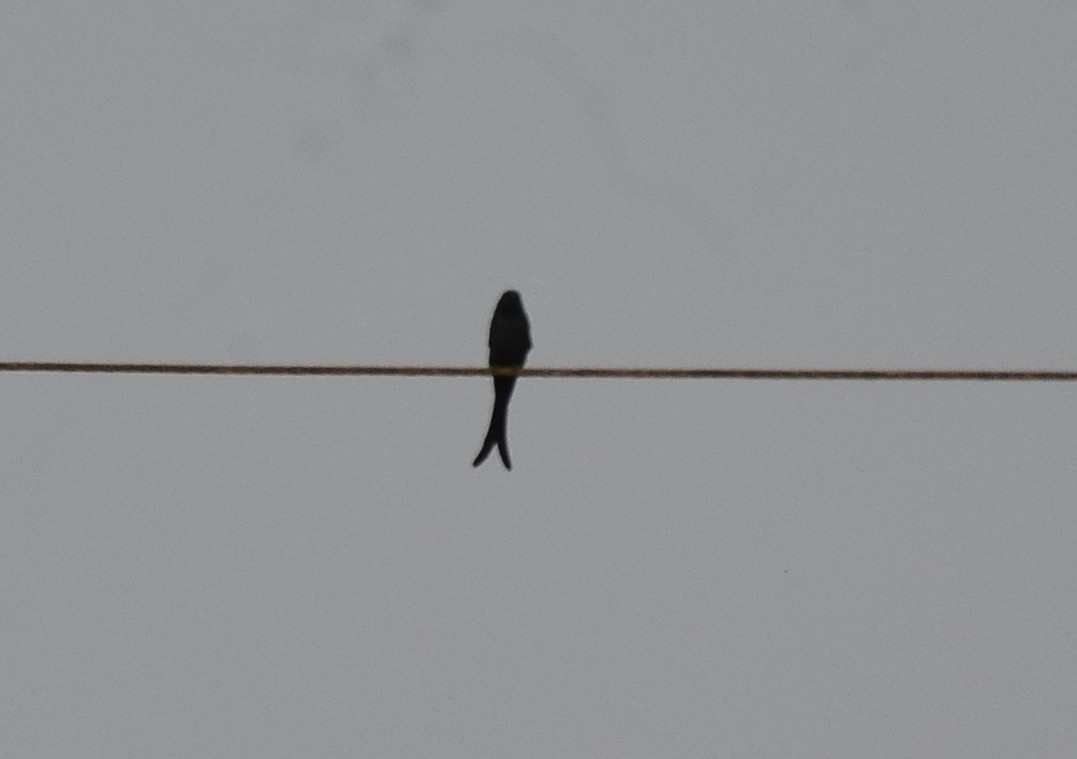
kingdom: Animalia
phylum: Chordata
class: Aves
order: Passeriformes
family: Dicruridae
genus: Dicrurus
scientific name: Dicrurus macrocercus
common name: Black drongo
